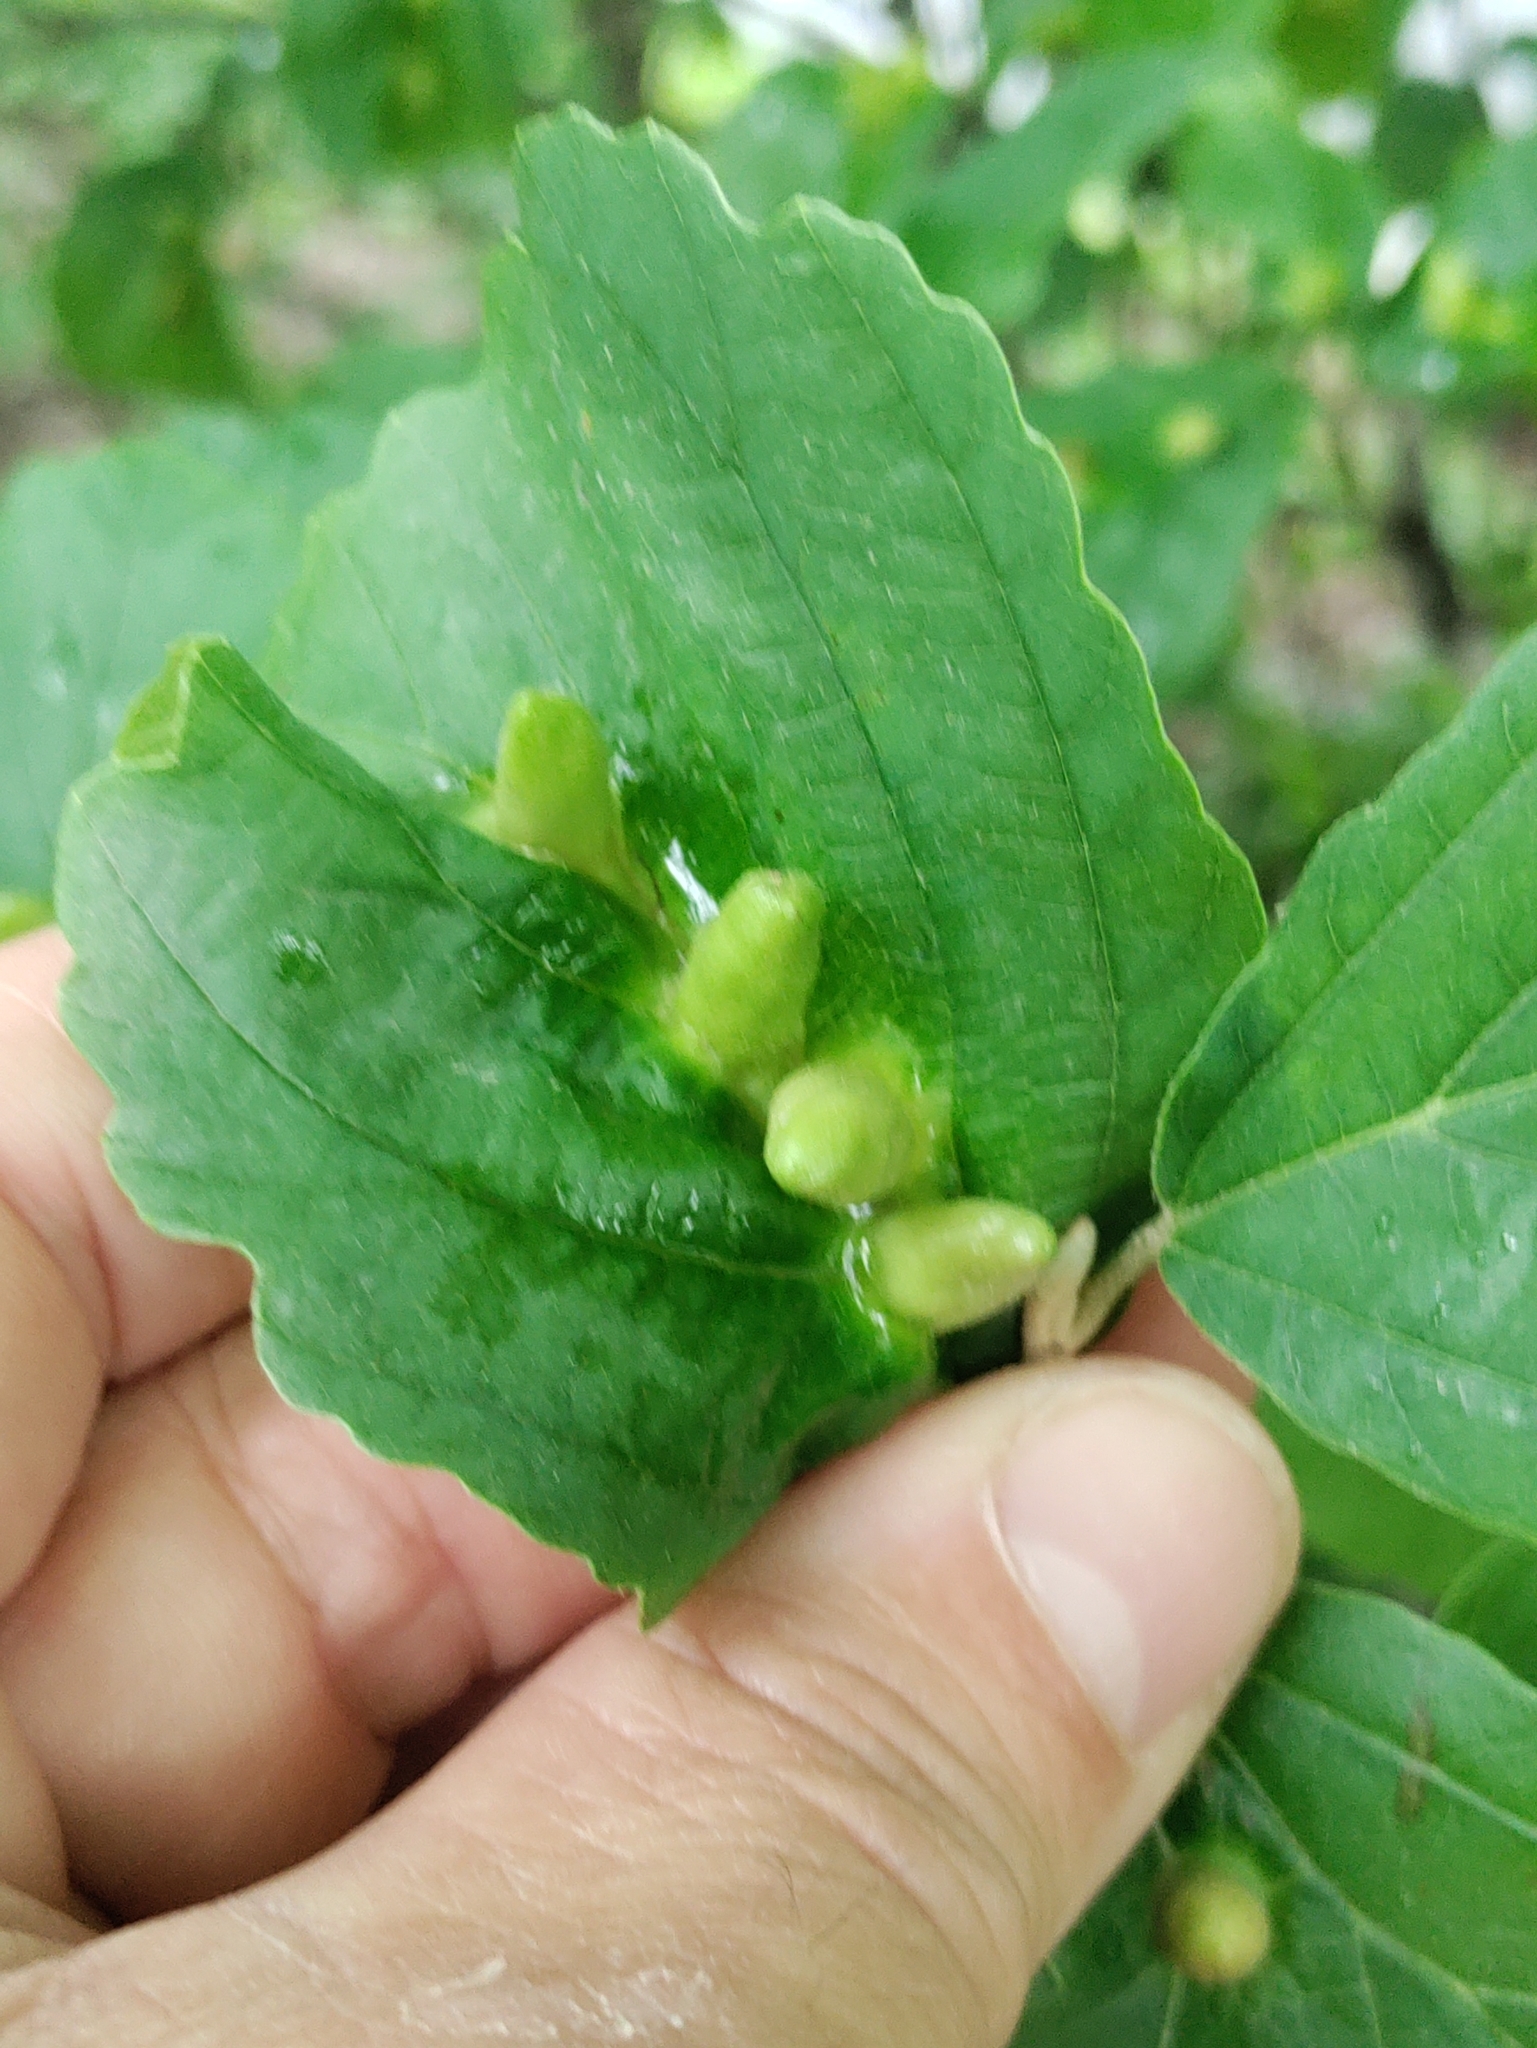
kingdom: Animalia
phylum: Arthropoda
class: Insecta
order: Hemiptera
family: Aphididae
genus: Hormaphis
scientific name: Hormaphis hamamelidis
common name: Witch-hazel cone gall aphid
